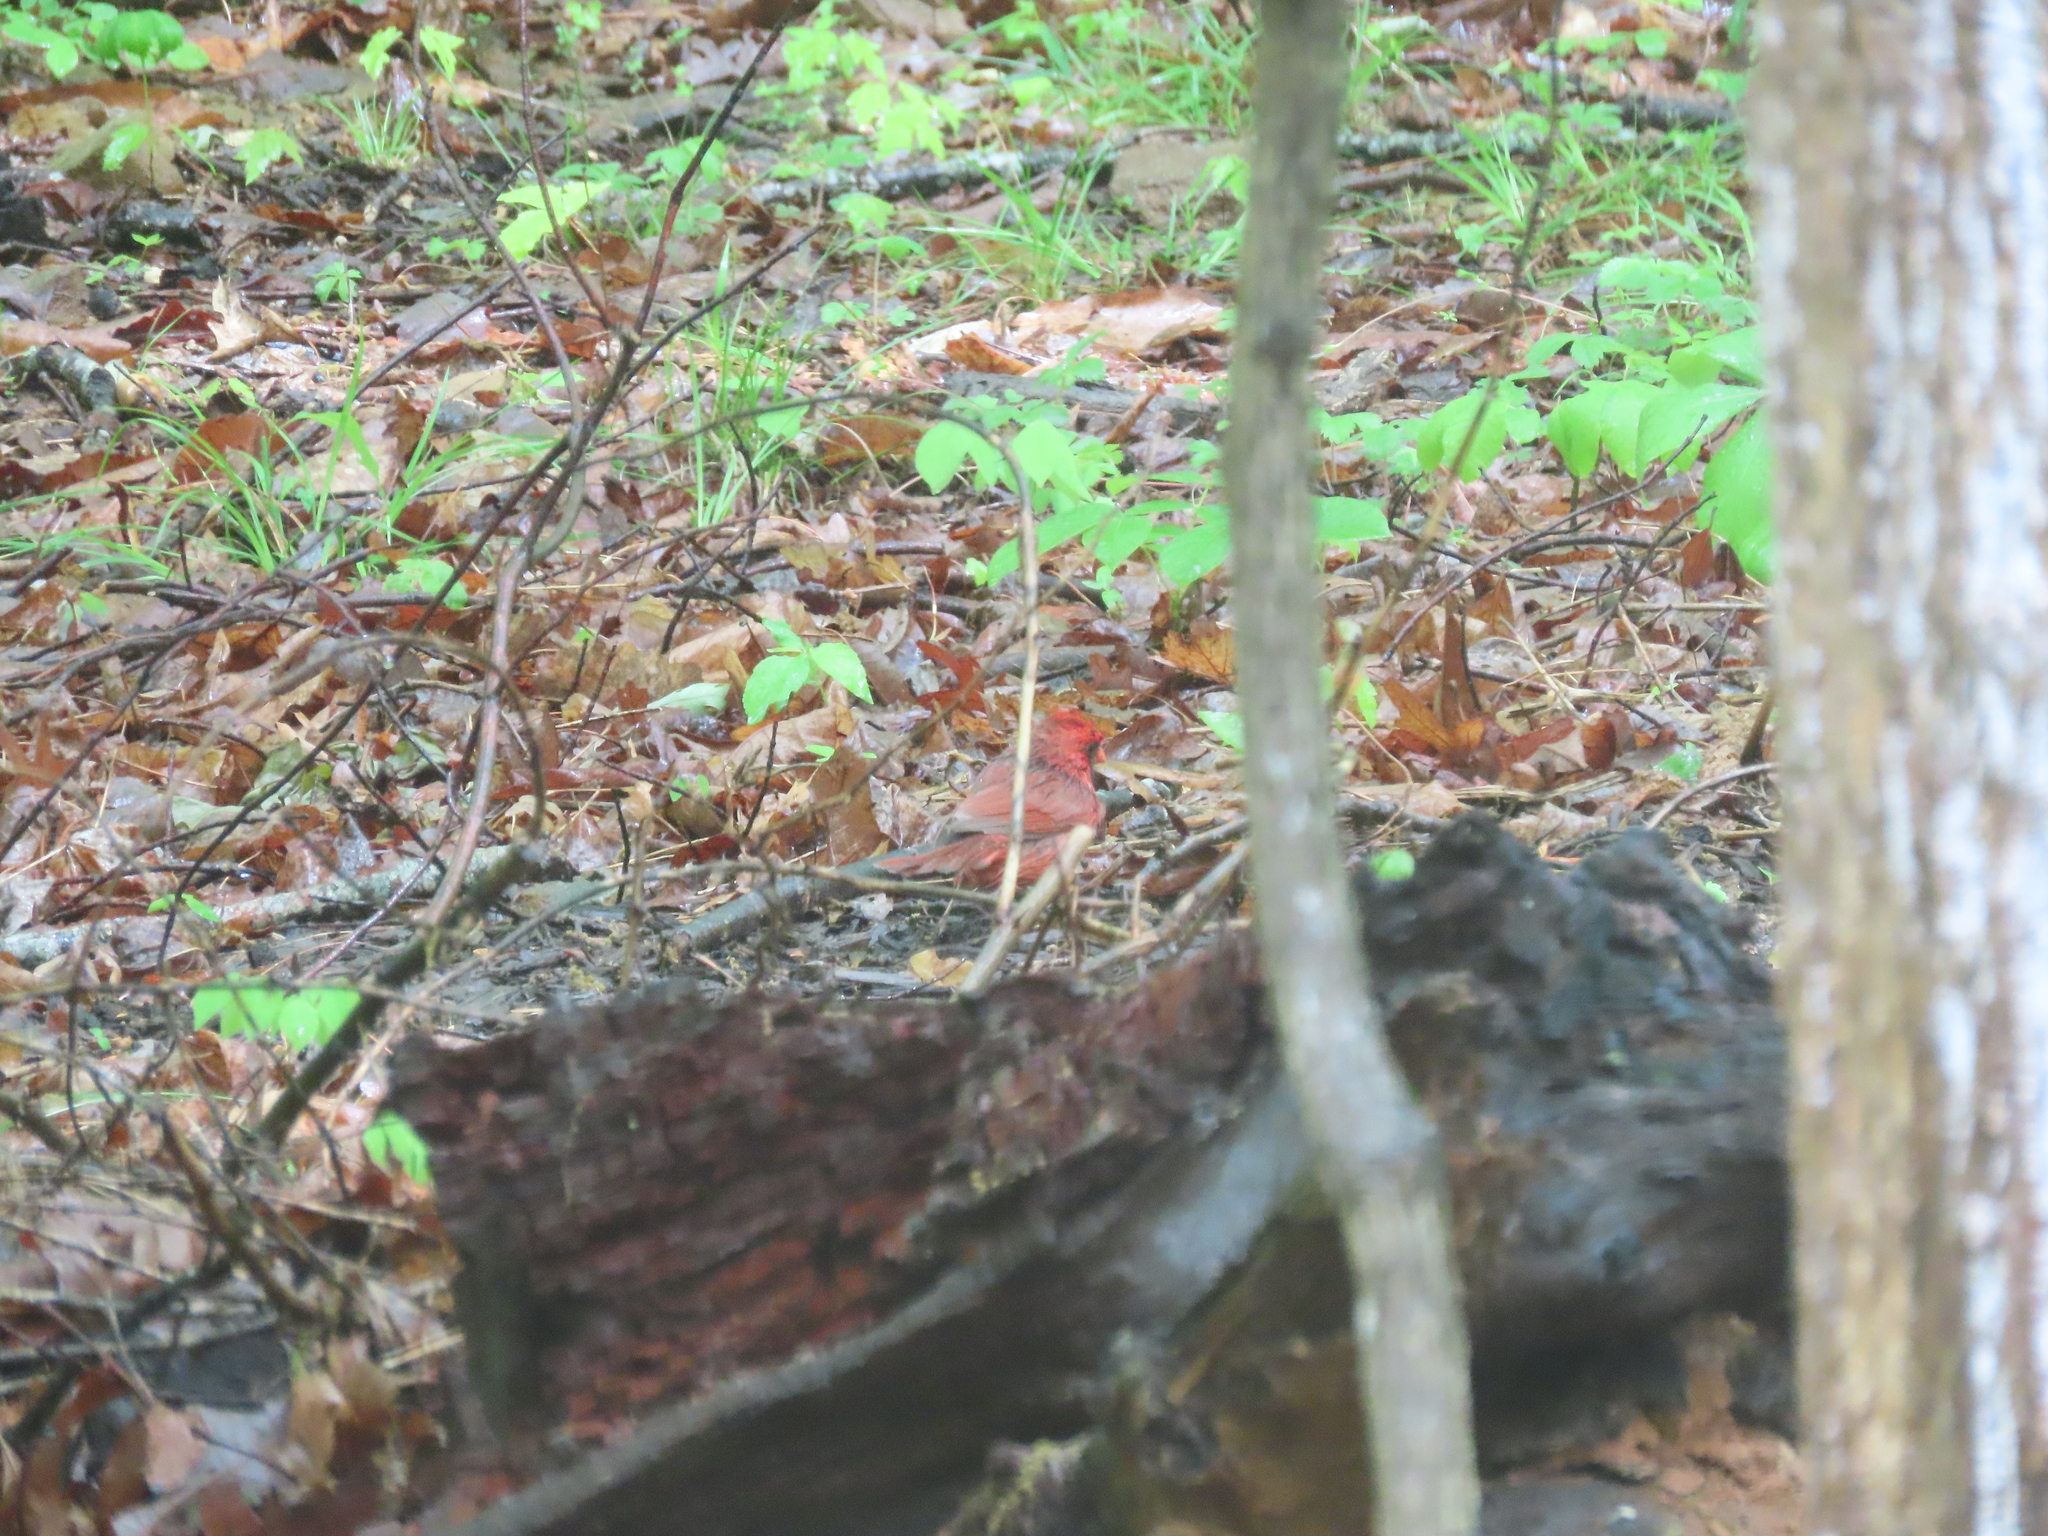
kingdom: Animalia
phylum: Chordata
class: Aves
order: Passeriformes
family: Cardinalidae
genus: Cardinalis
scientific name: Cardinalis cardinalis
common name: Northern cardinal
